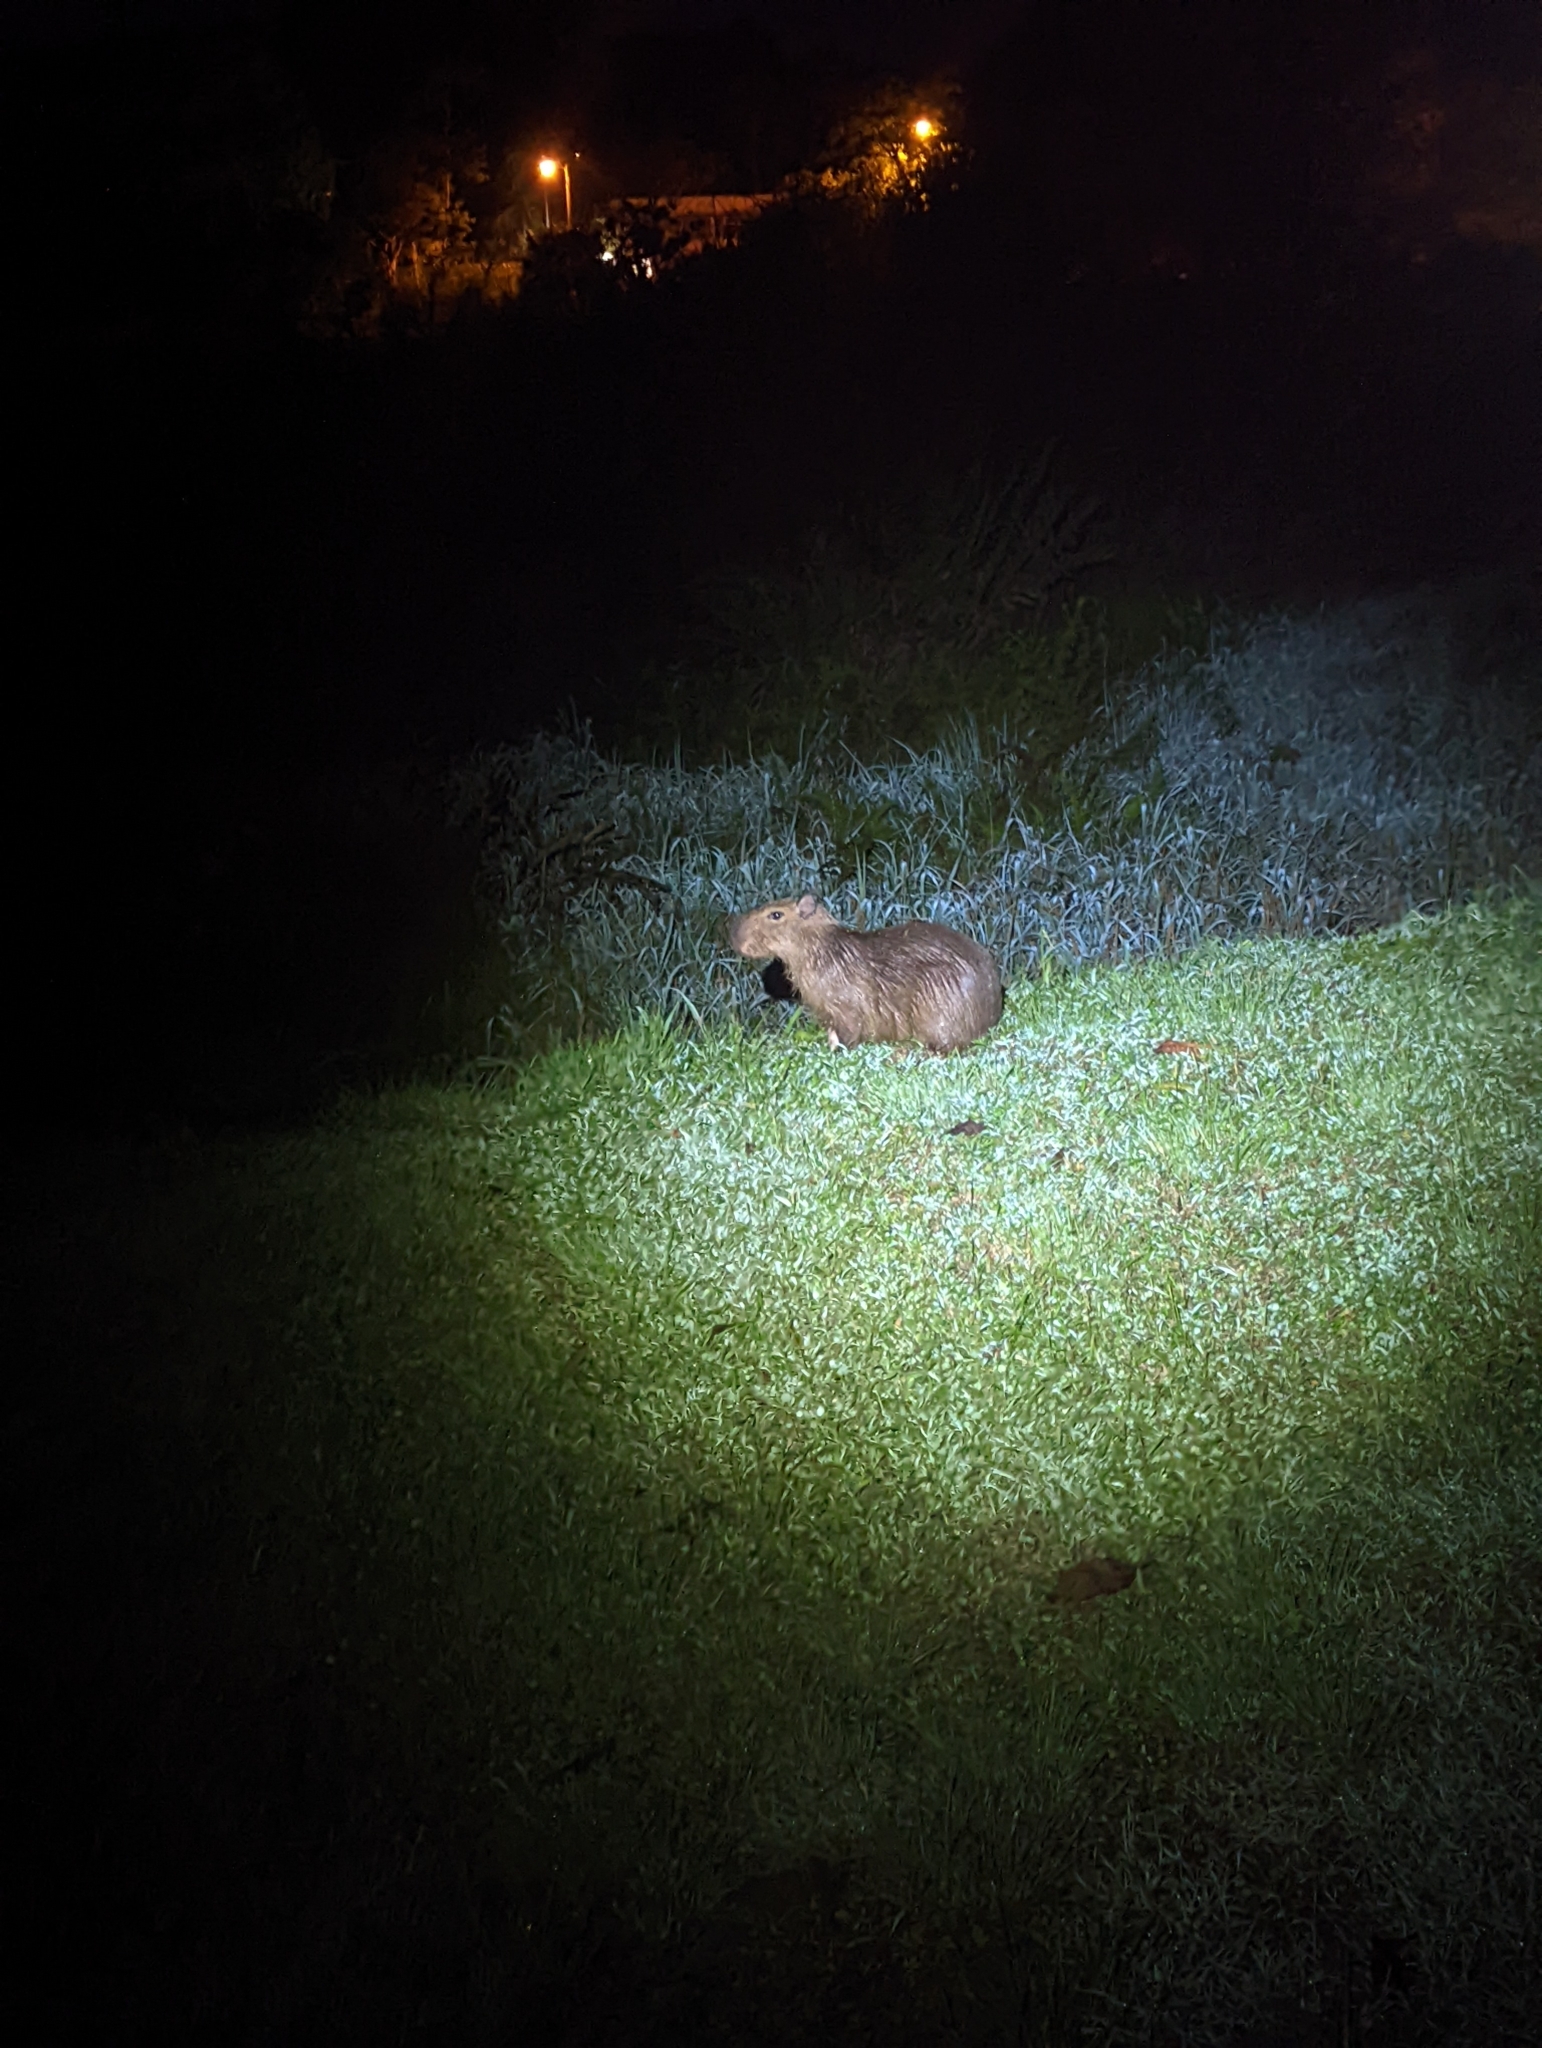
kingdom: Animalia
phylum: Chordata
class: Mammalia
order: Rodentia
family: Caviidae
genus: Hydrochoerus
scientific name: Hydrochoerus isthmius
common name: Lesser capybara
